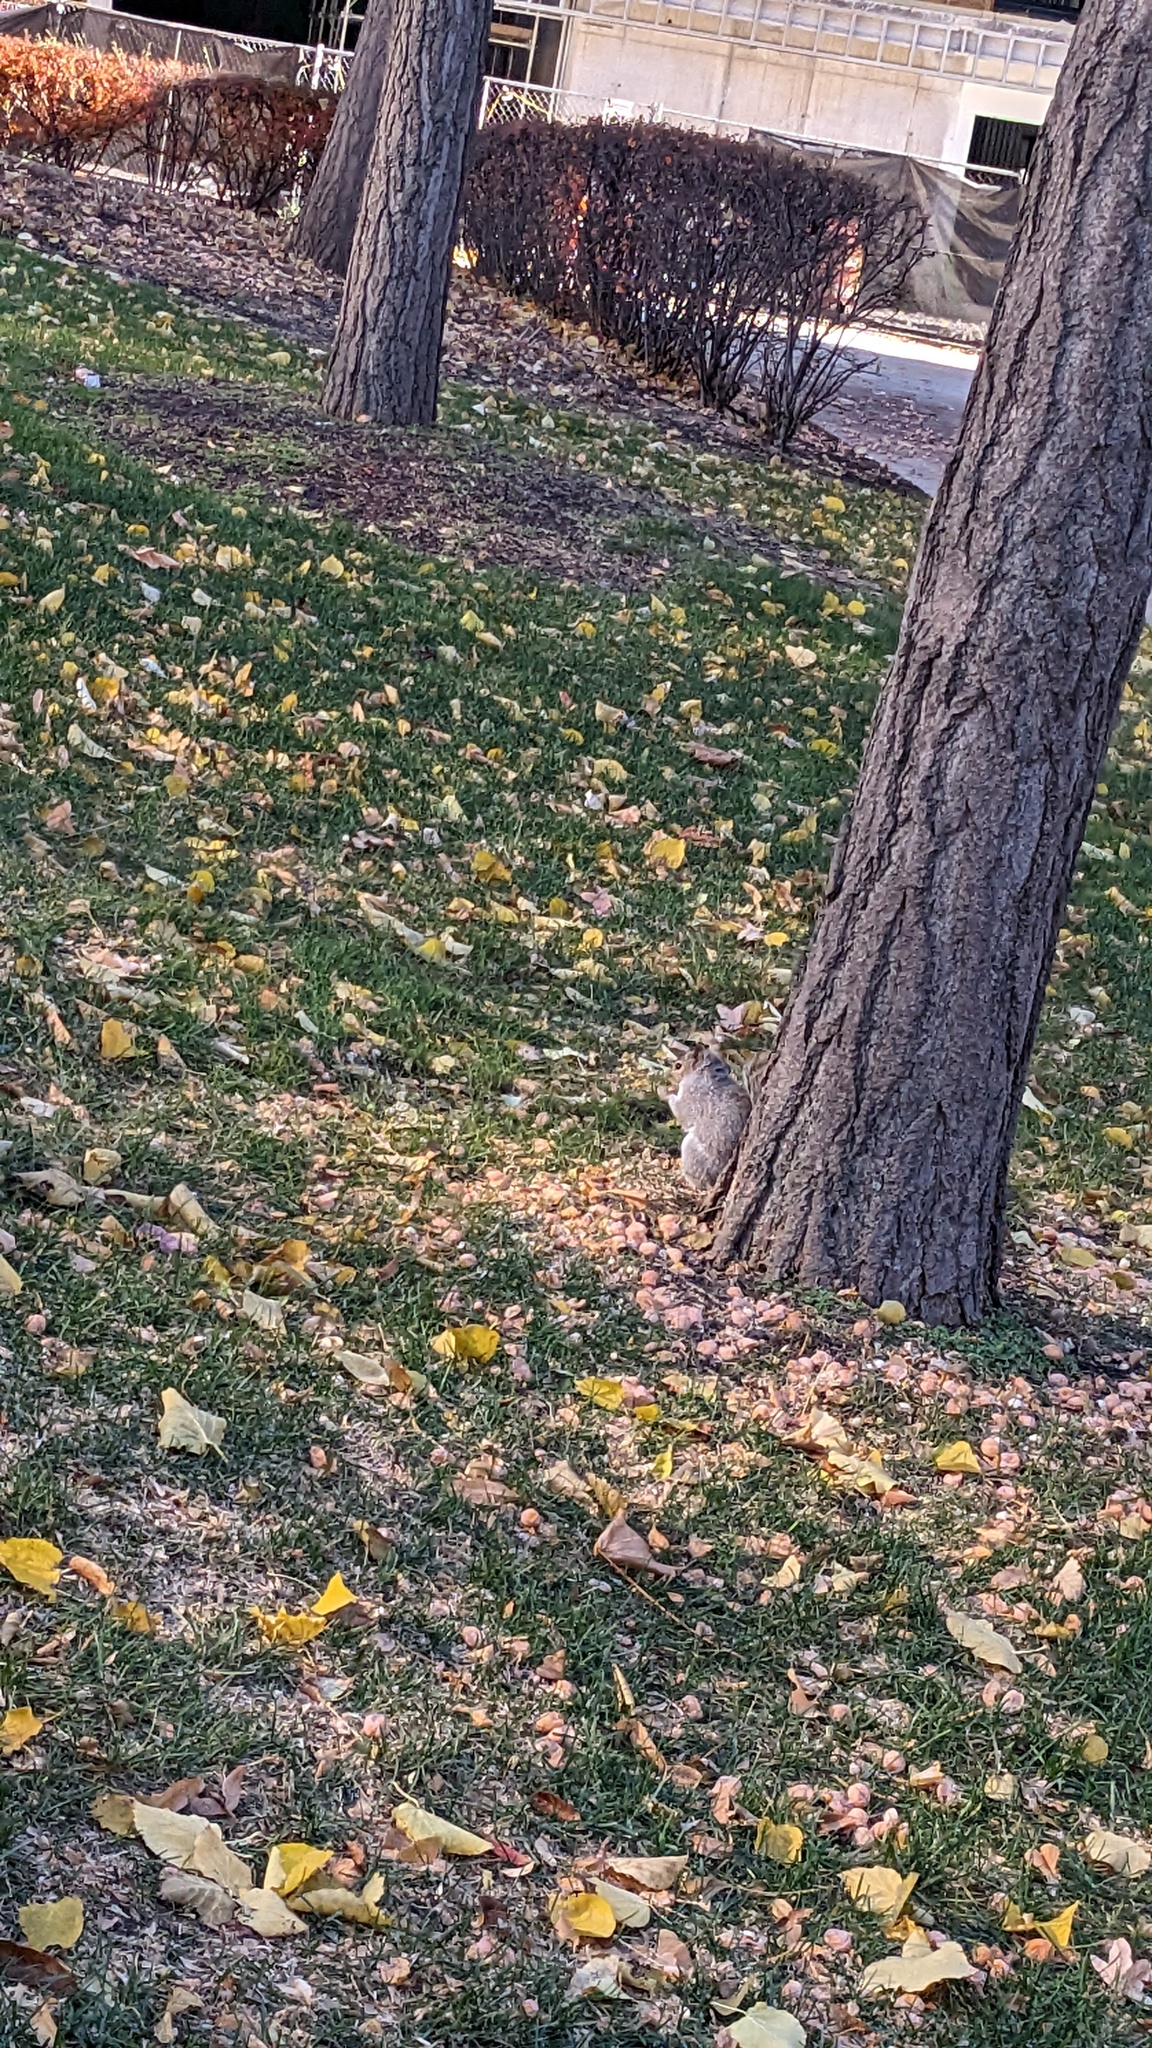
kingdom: Animalia
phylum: Chordata
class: Mammalia
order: Rodentia
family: Sciuridae
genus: Sciurus
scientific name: Sciurus carolinensis
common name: Eastern gray squirrel
